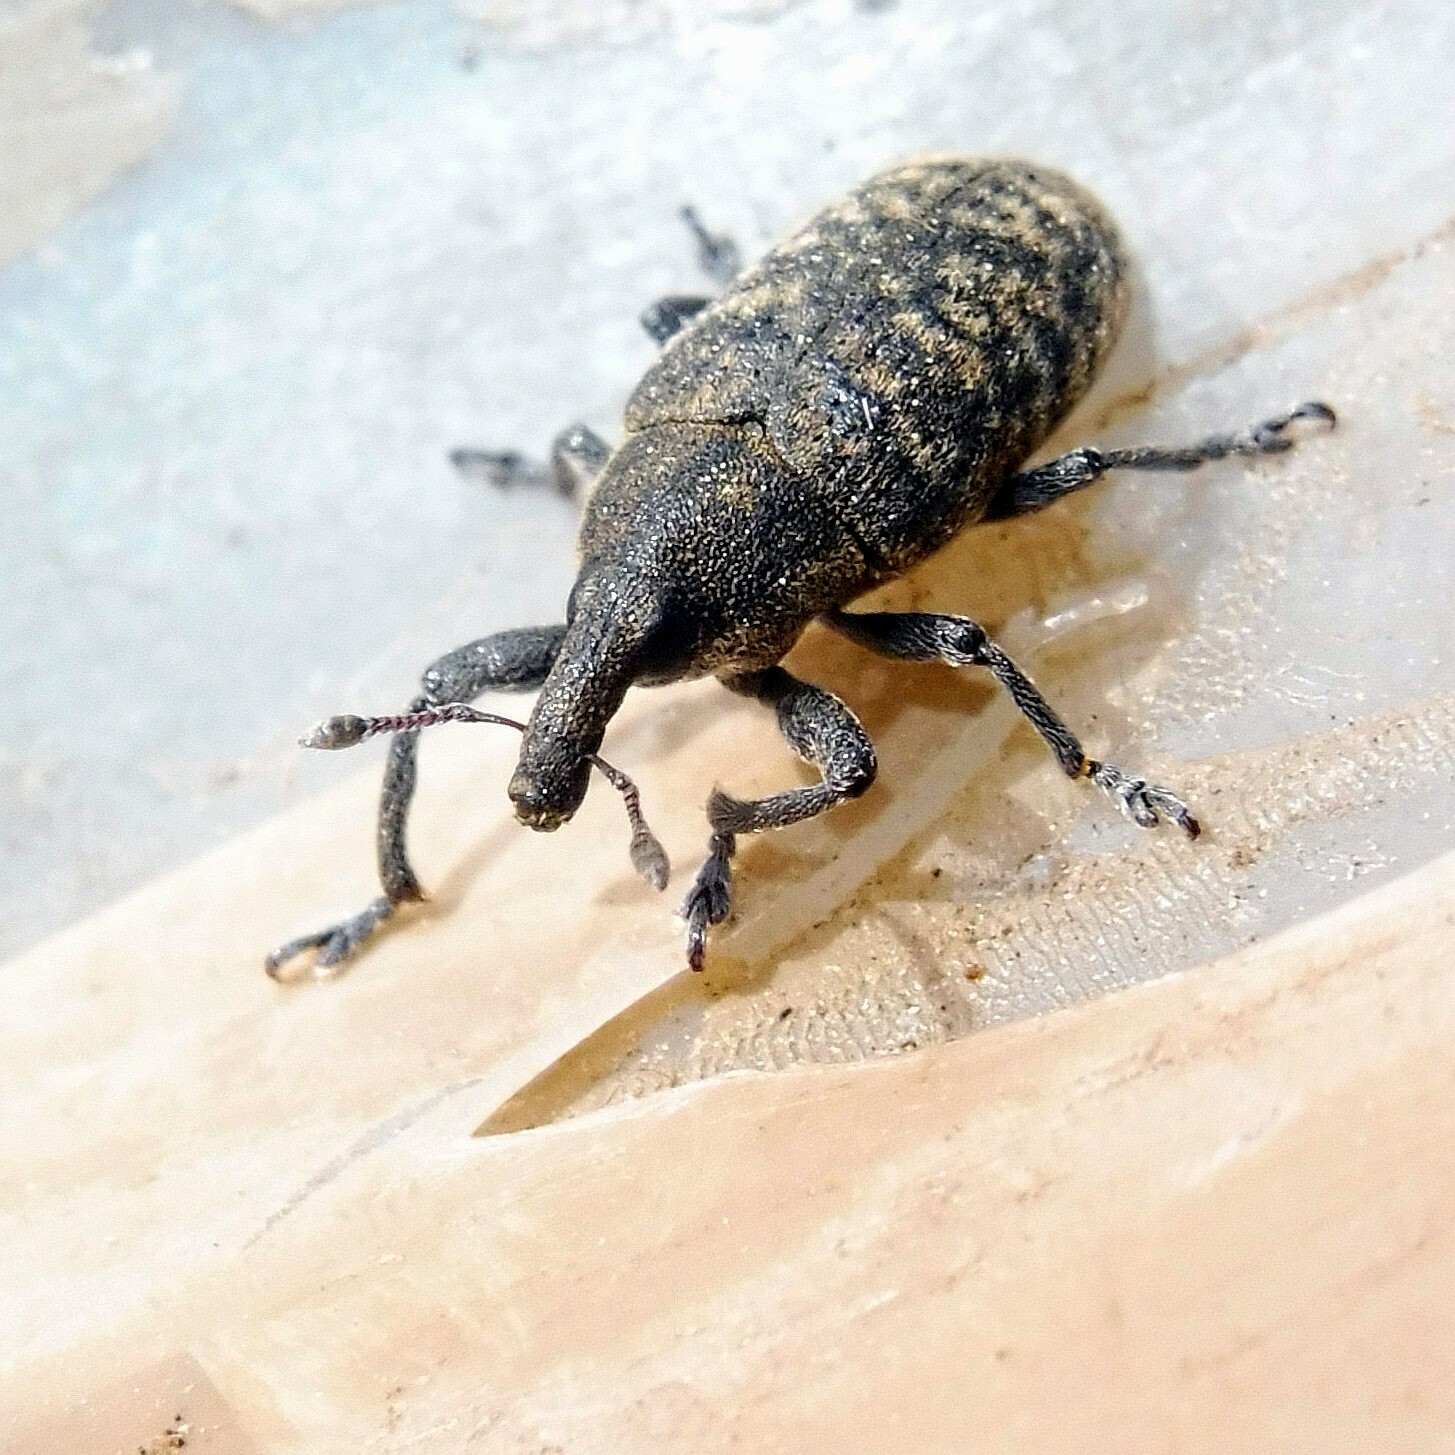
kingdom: Animalia
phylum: Arthropoda
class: Insecta
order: Coleoptera
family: Curculionidae
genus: Larinus
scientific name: Larinus carlinae
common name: Weevil
